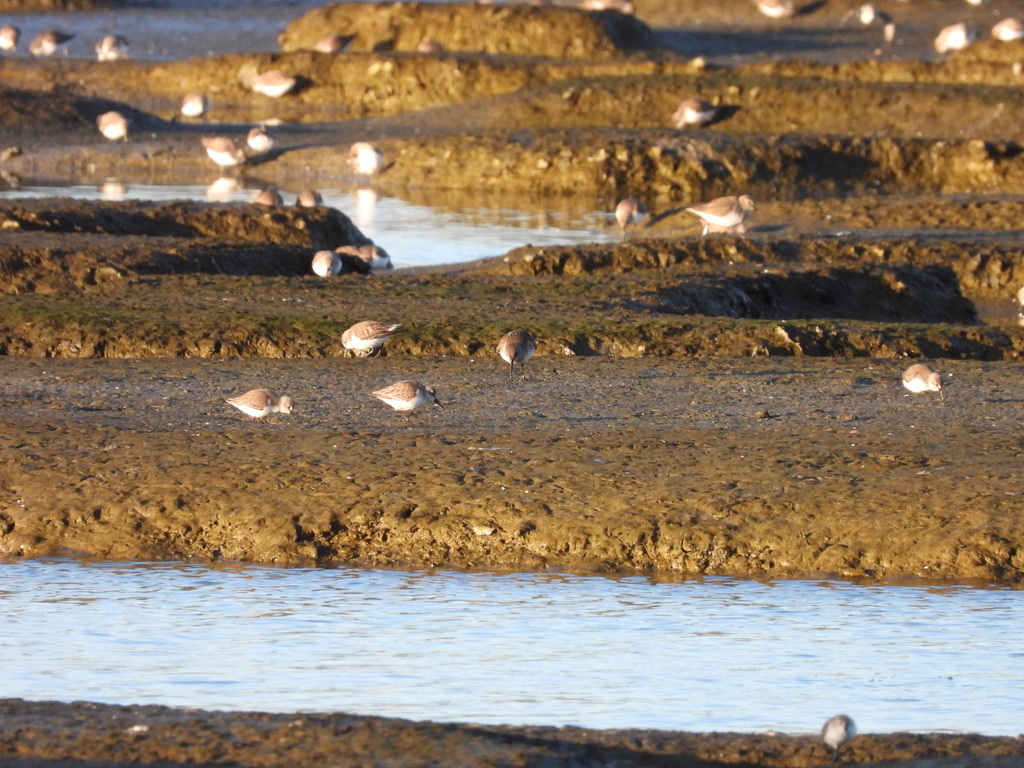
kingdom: Animalia
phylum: Chordata
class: Aves
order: Charadriiformes
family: Scolopacidae
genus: Calidris
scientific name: Calidris alpina
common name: Dunlin
